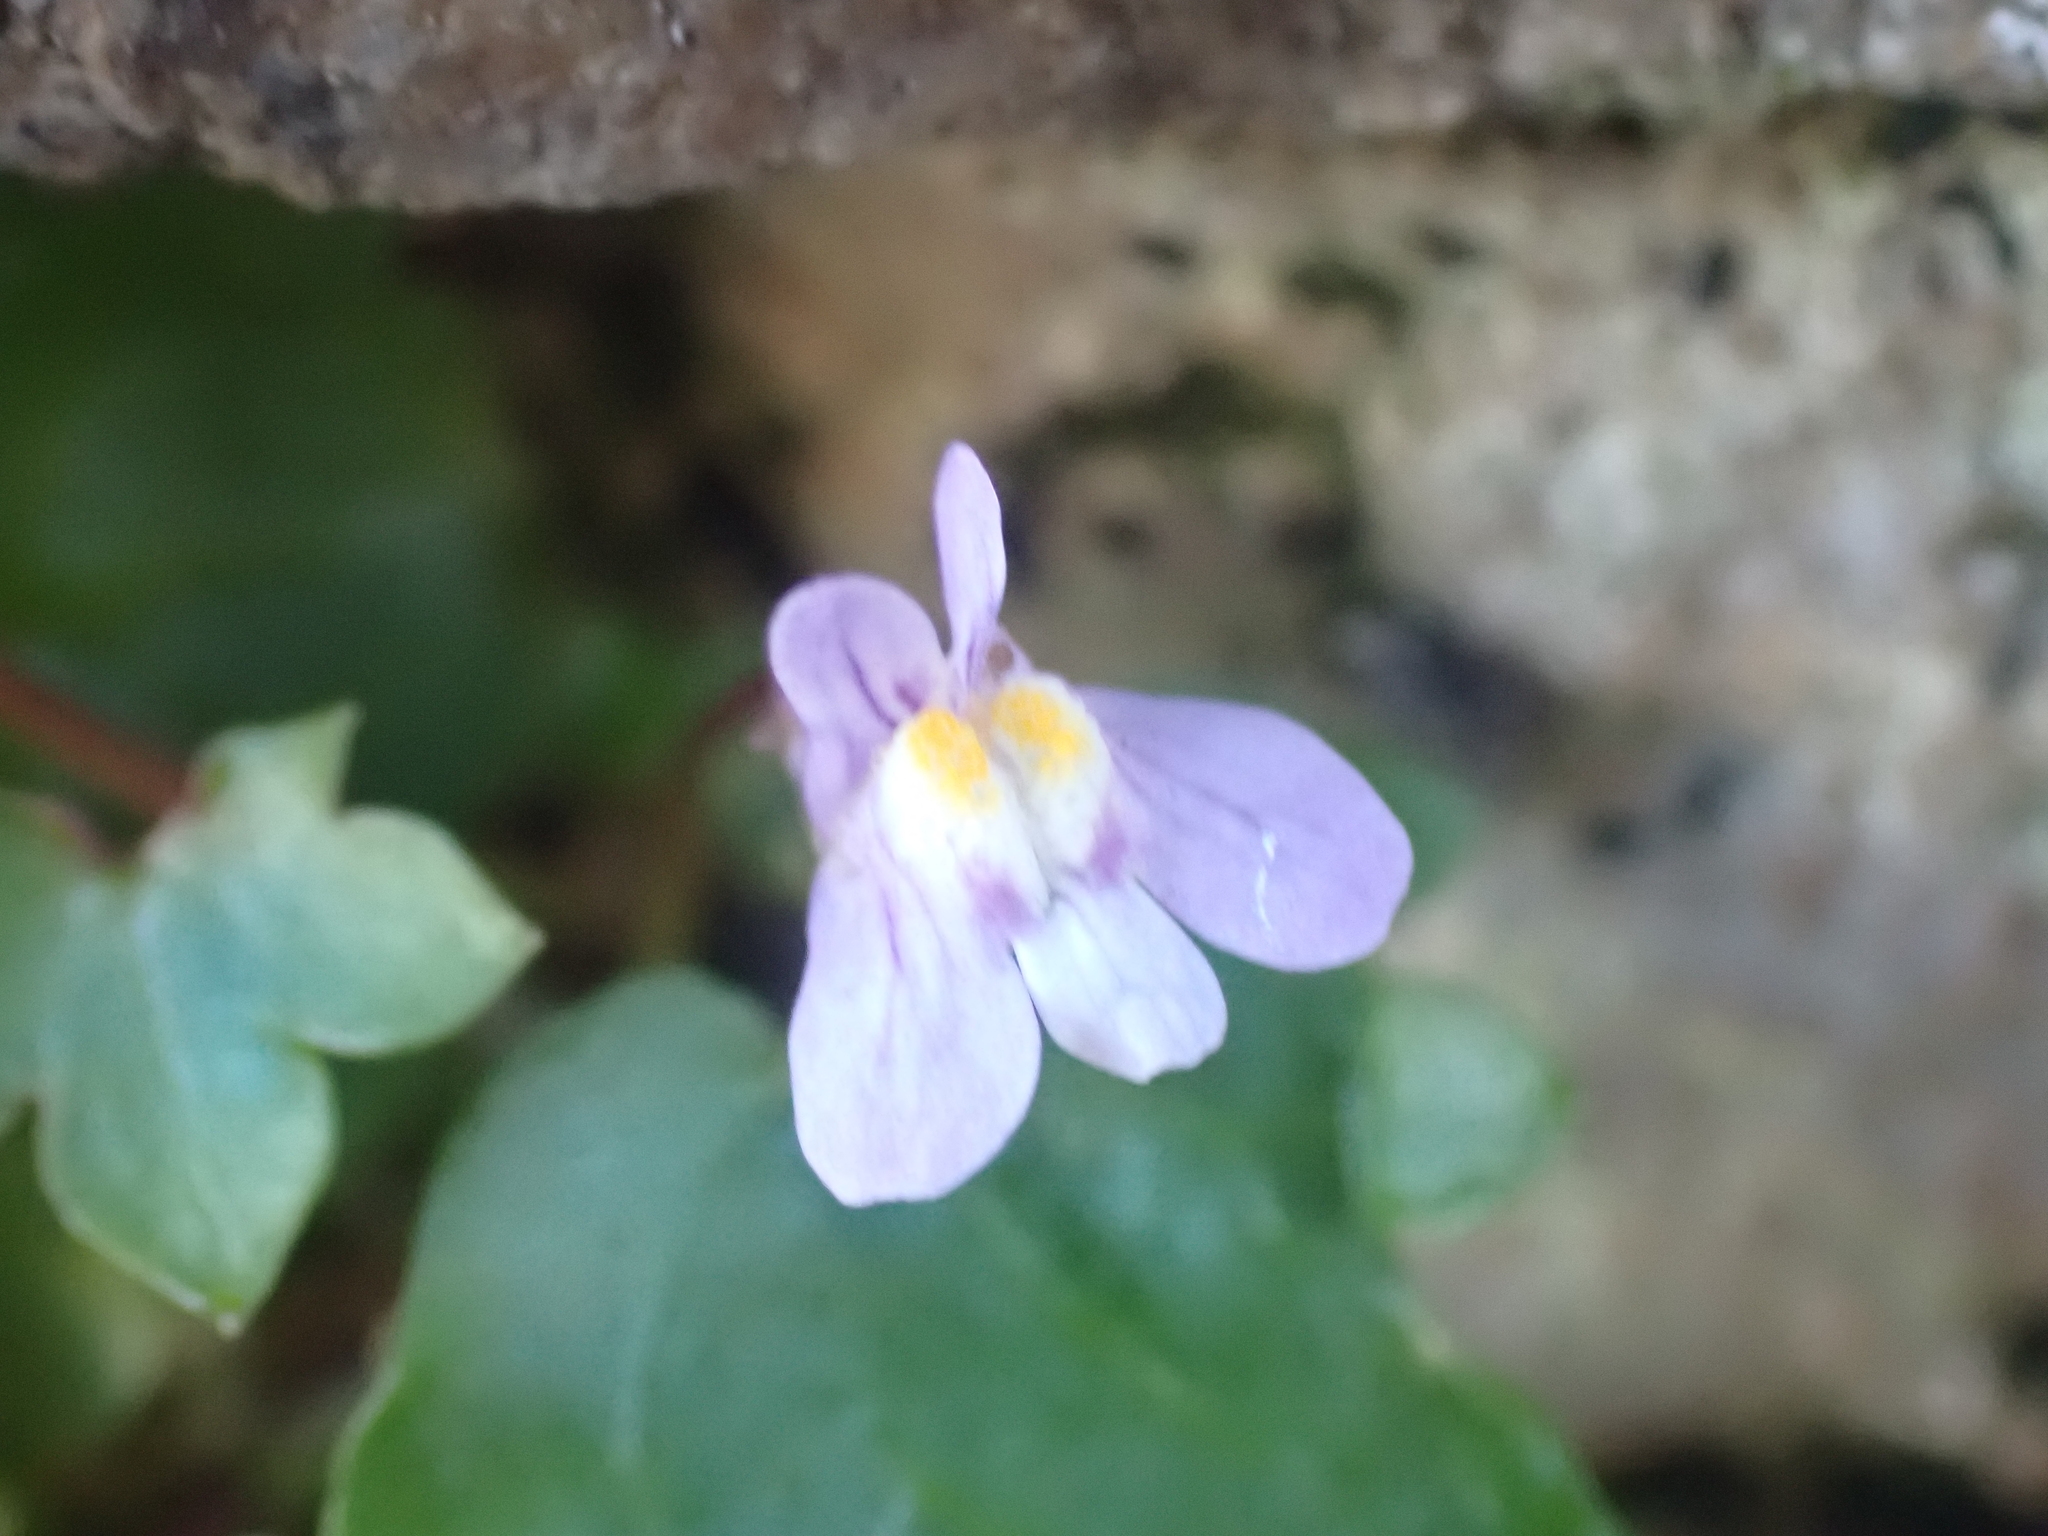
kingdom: Plantae
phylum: Tracheophyta
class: Magnoliopsida
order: Lamiales
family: Plantaginaceae
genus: Cymbalaria
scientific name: Cymbalaria muralis
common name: Ivy-leaved toadflax
